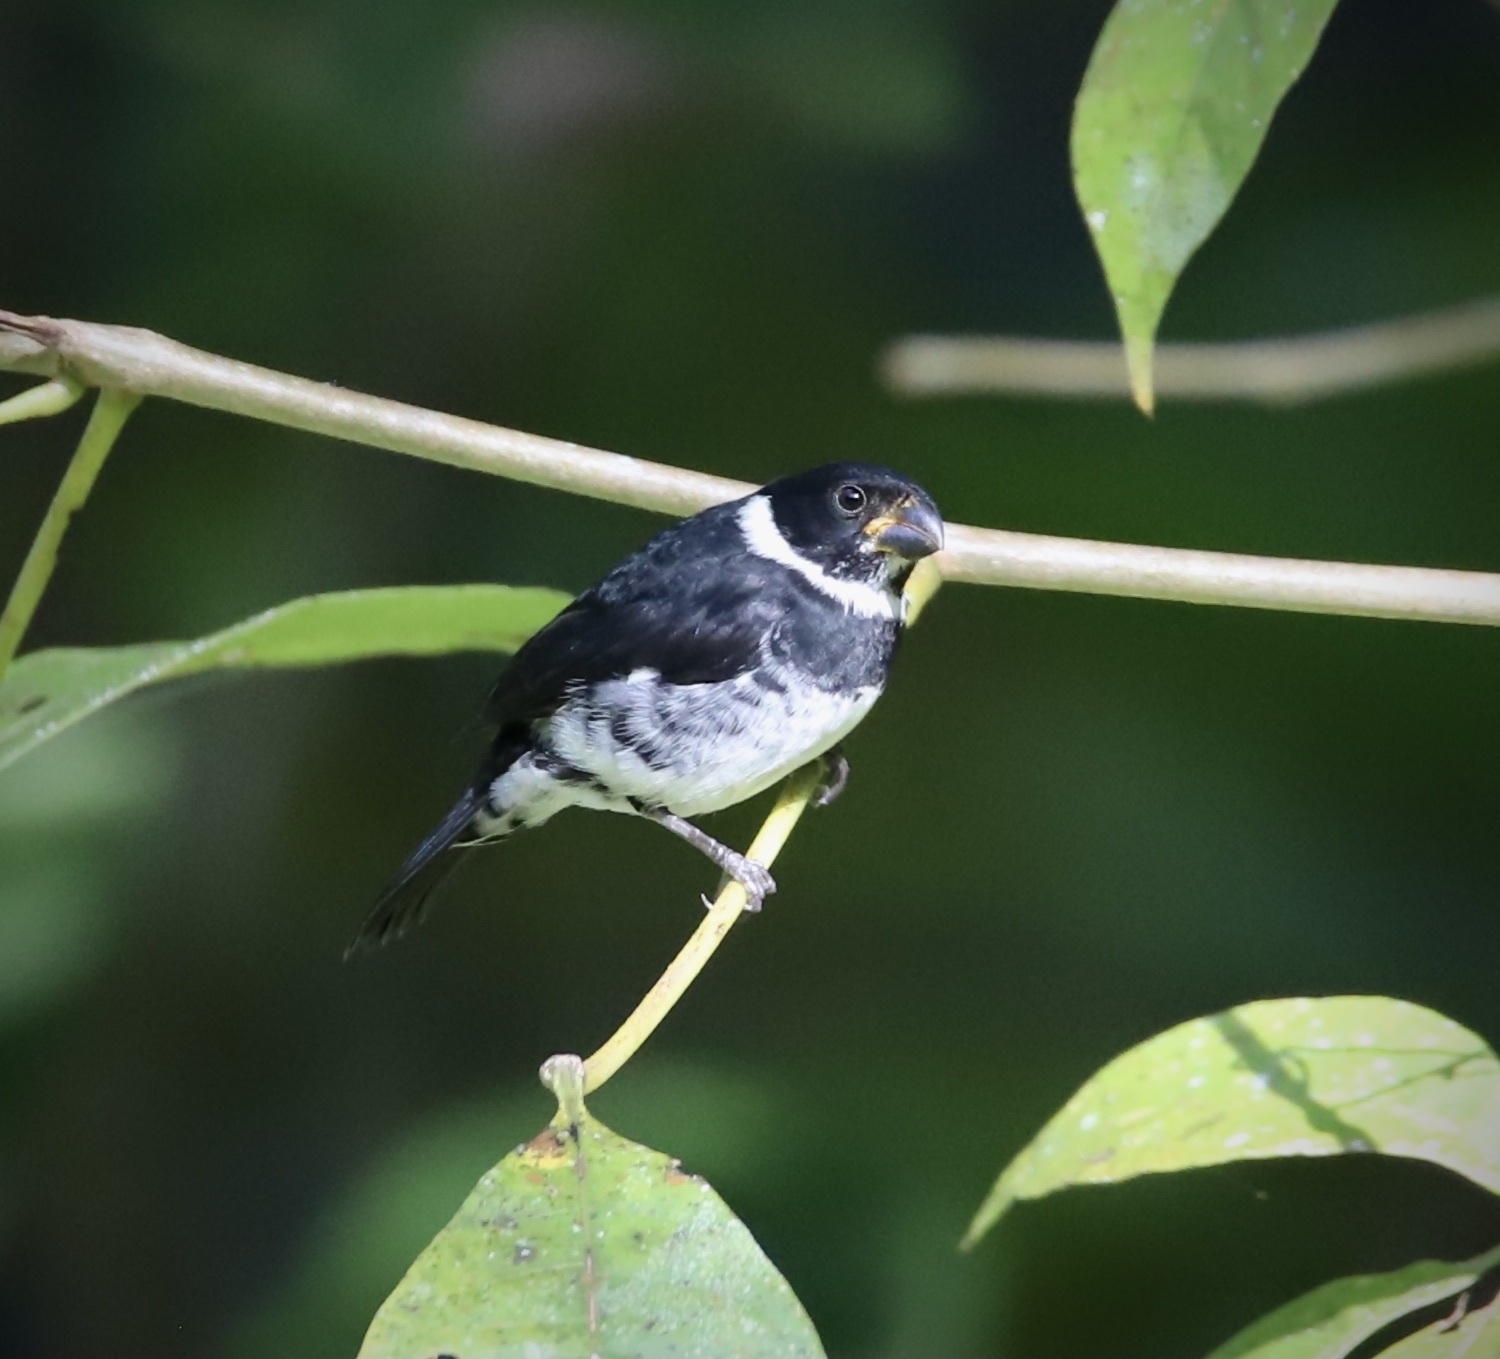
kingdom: Animalia
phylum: Chordata
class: Aves
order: Passeriformes
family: Thraupidae
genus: Sporophila
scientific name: Sporophila corvina
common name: Variable seedeater
